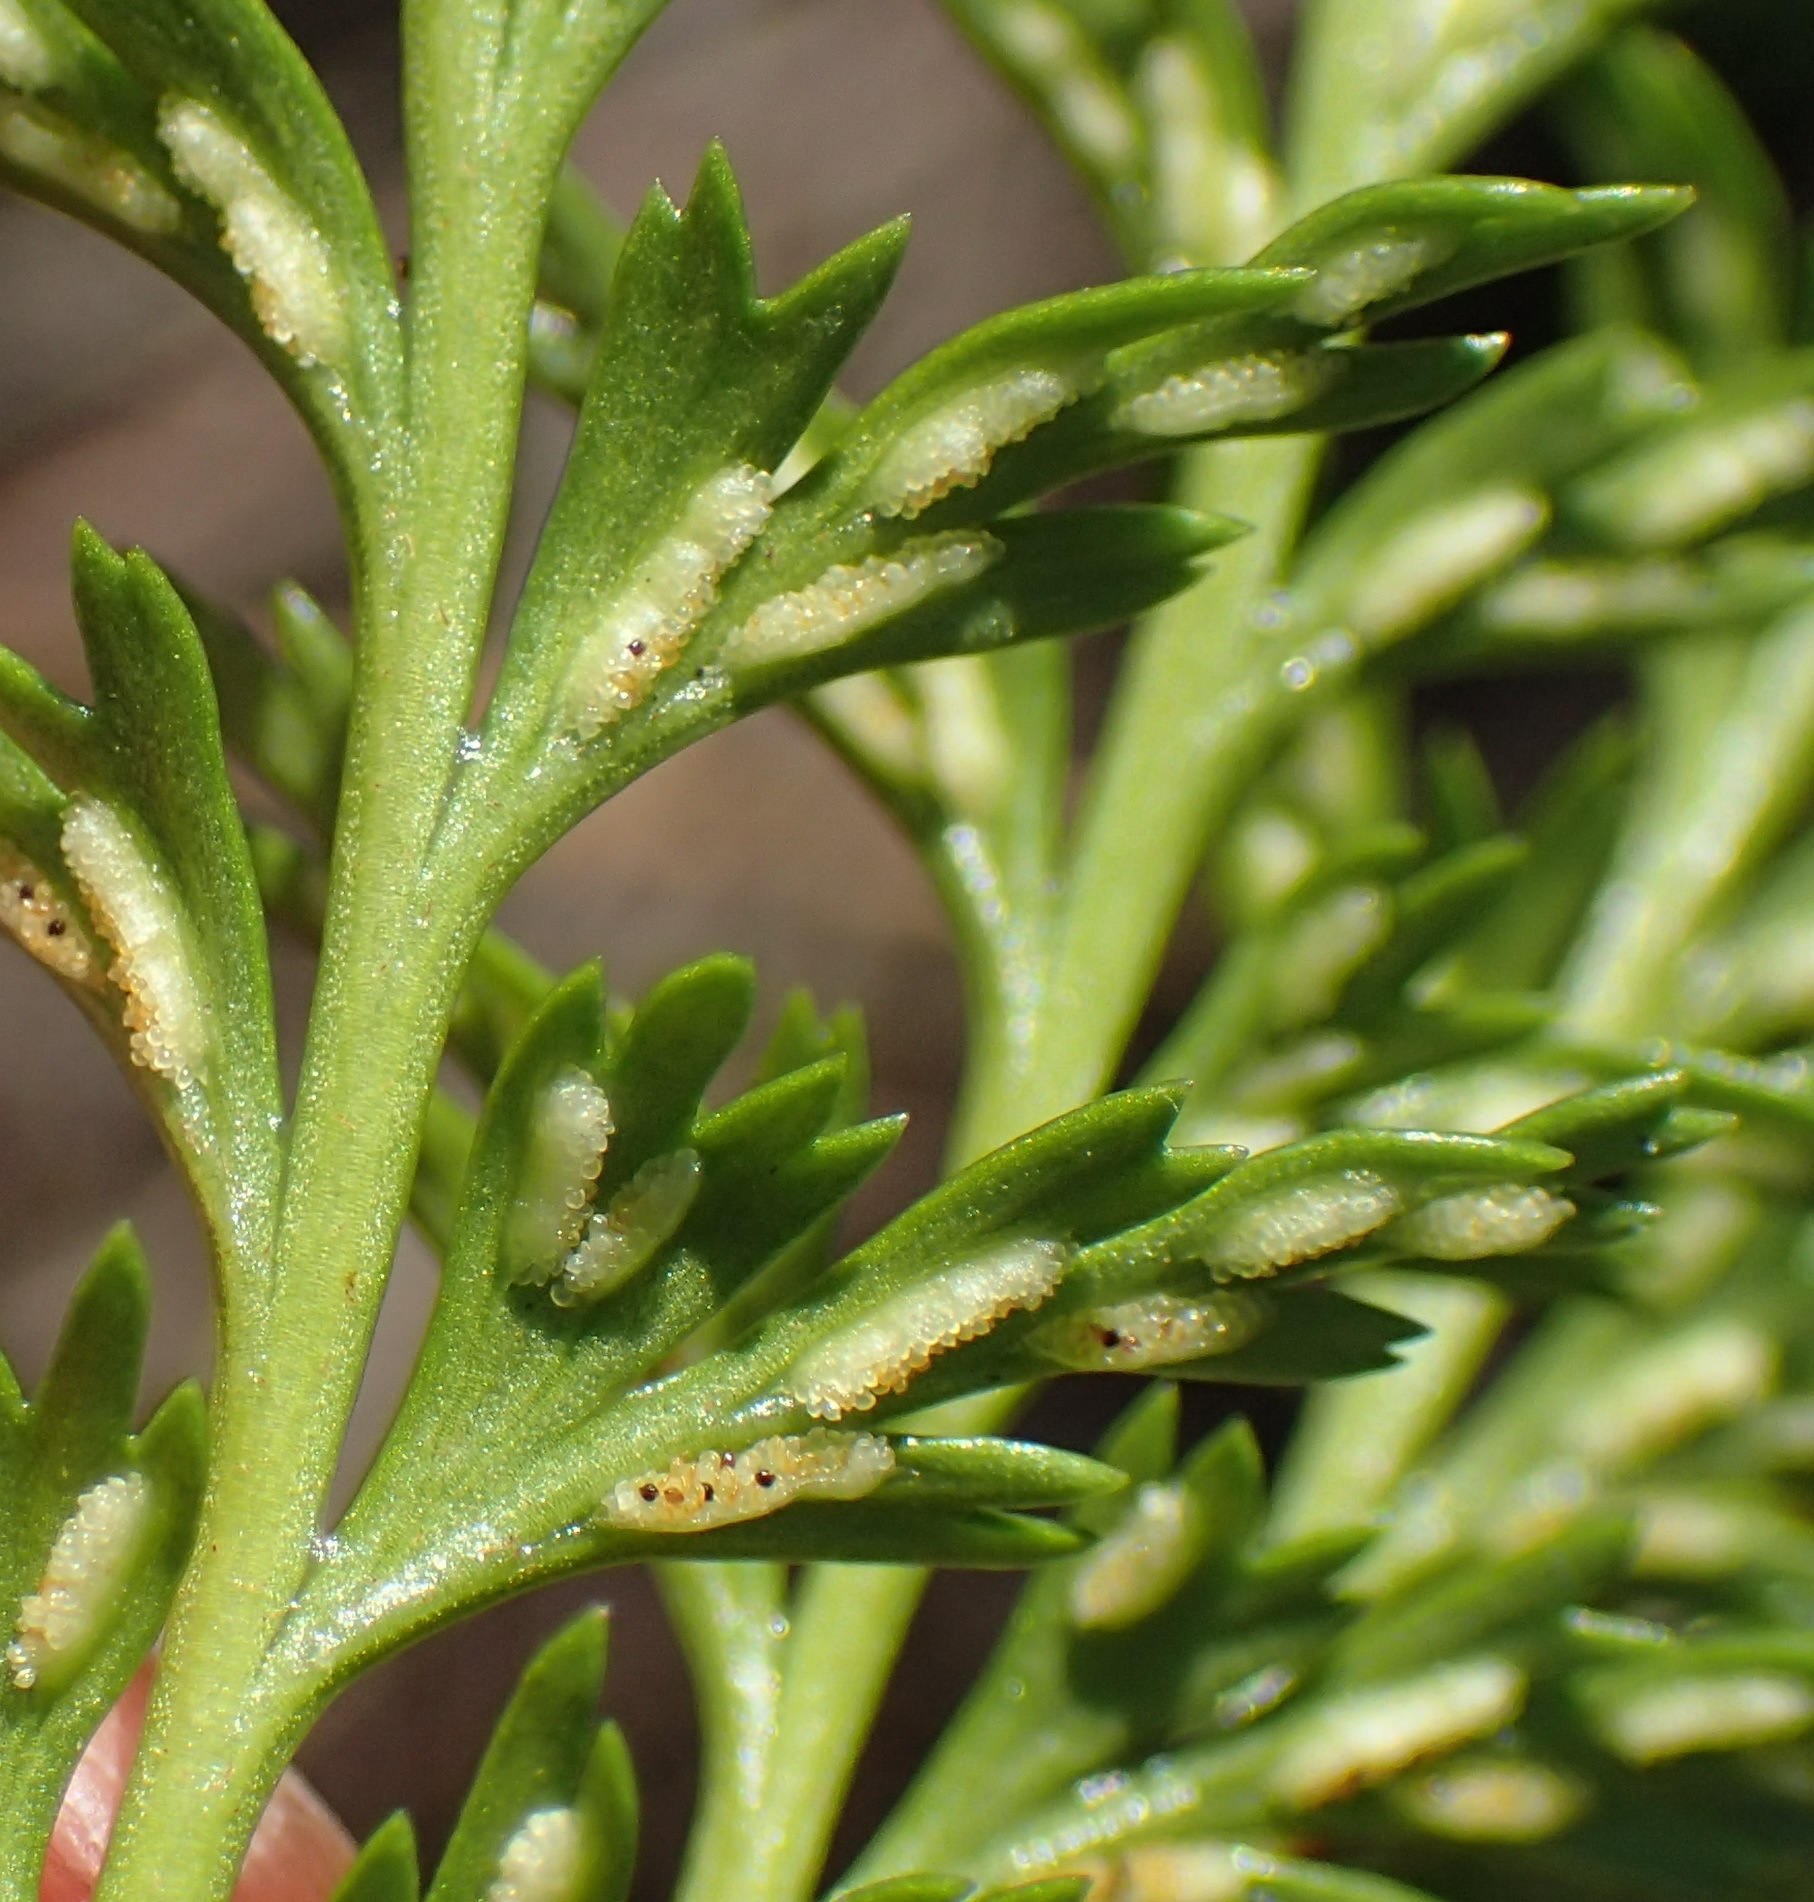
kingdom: Plantae
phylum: Tracheophyta
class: Polypodiopsida
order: Polypodiales
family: Aspleniaceae
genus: Asplenium
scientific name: Asplenium adiantum-nigrum
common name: Black spleenwort
